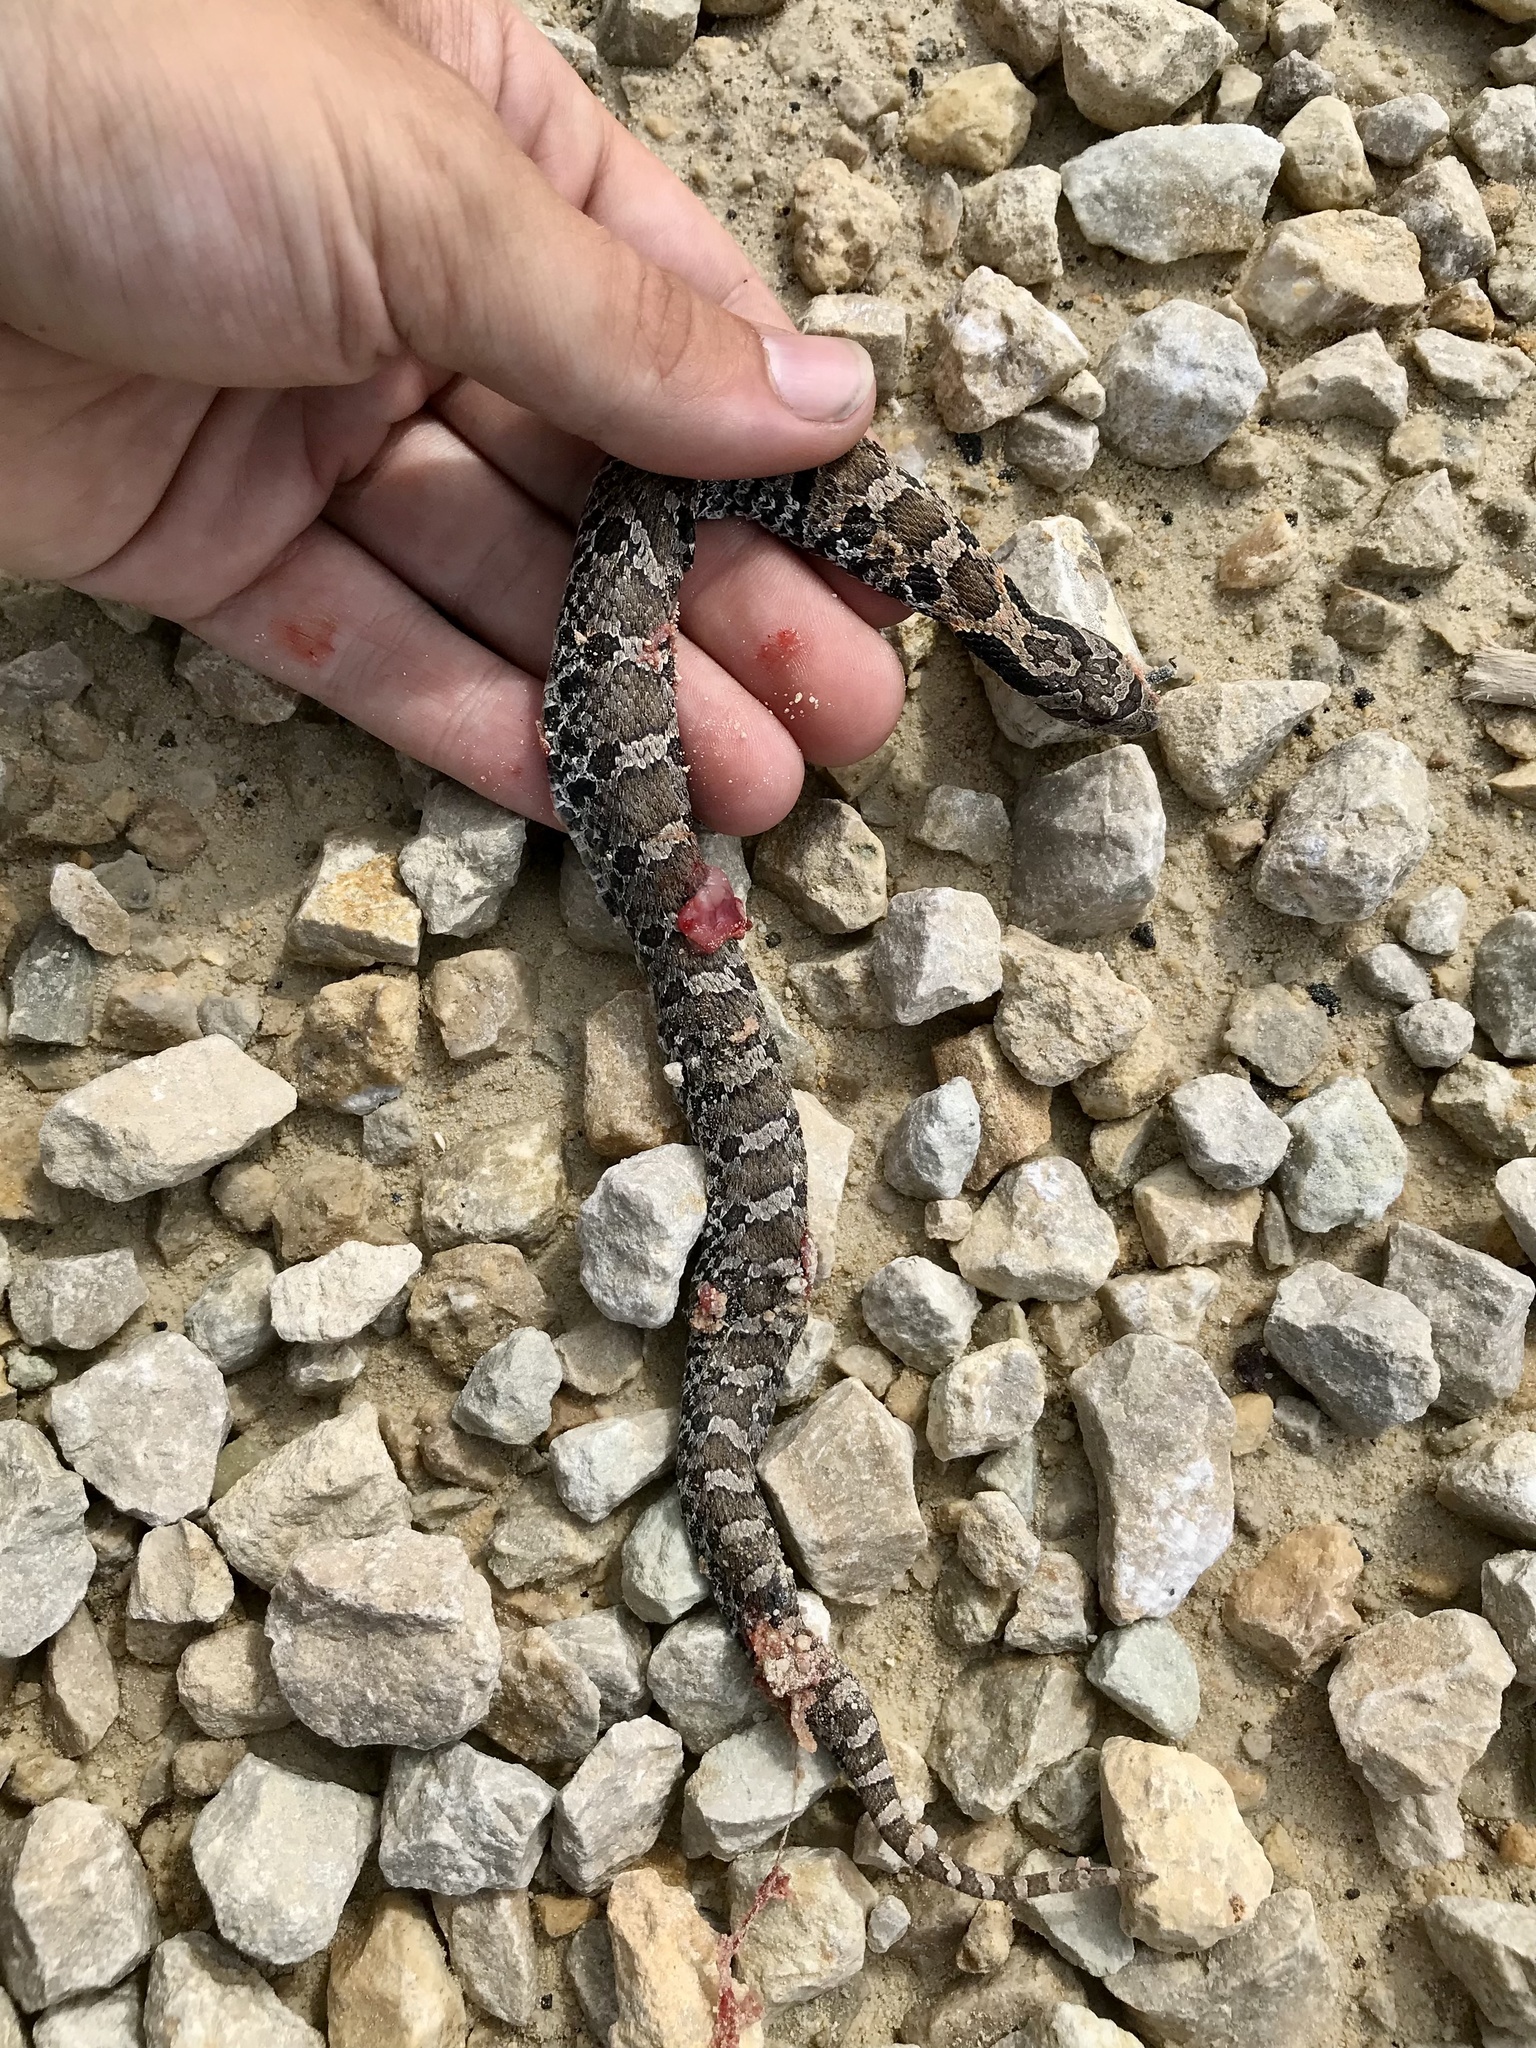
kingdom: Animalia
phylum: Chordata
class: Squamata
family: Colubridae
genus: Heterodon
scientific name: Heterodon platirhinos
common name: Eastern hognose snake
